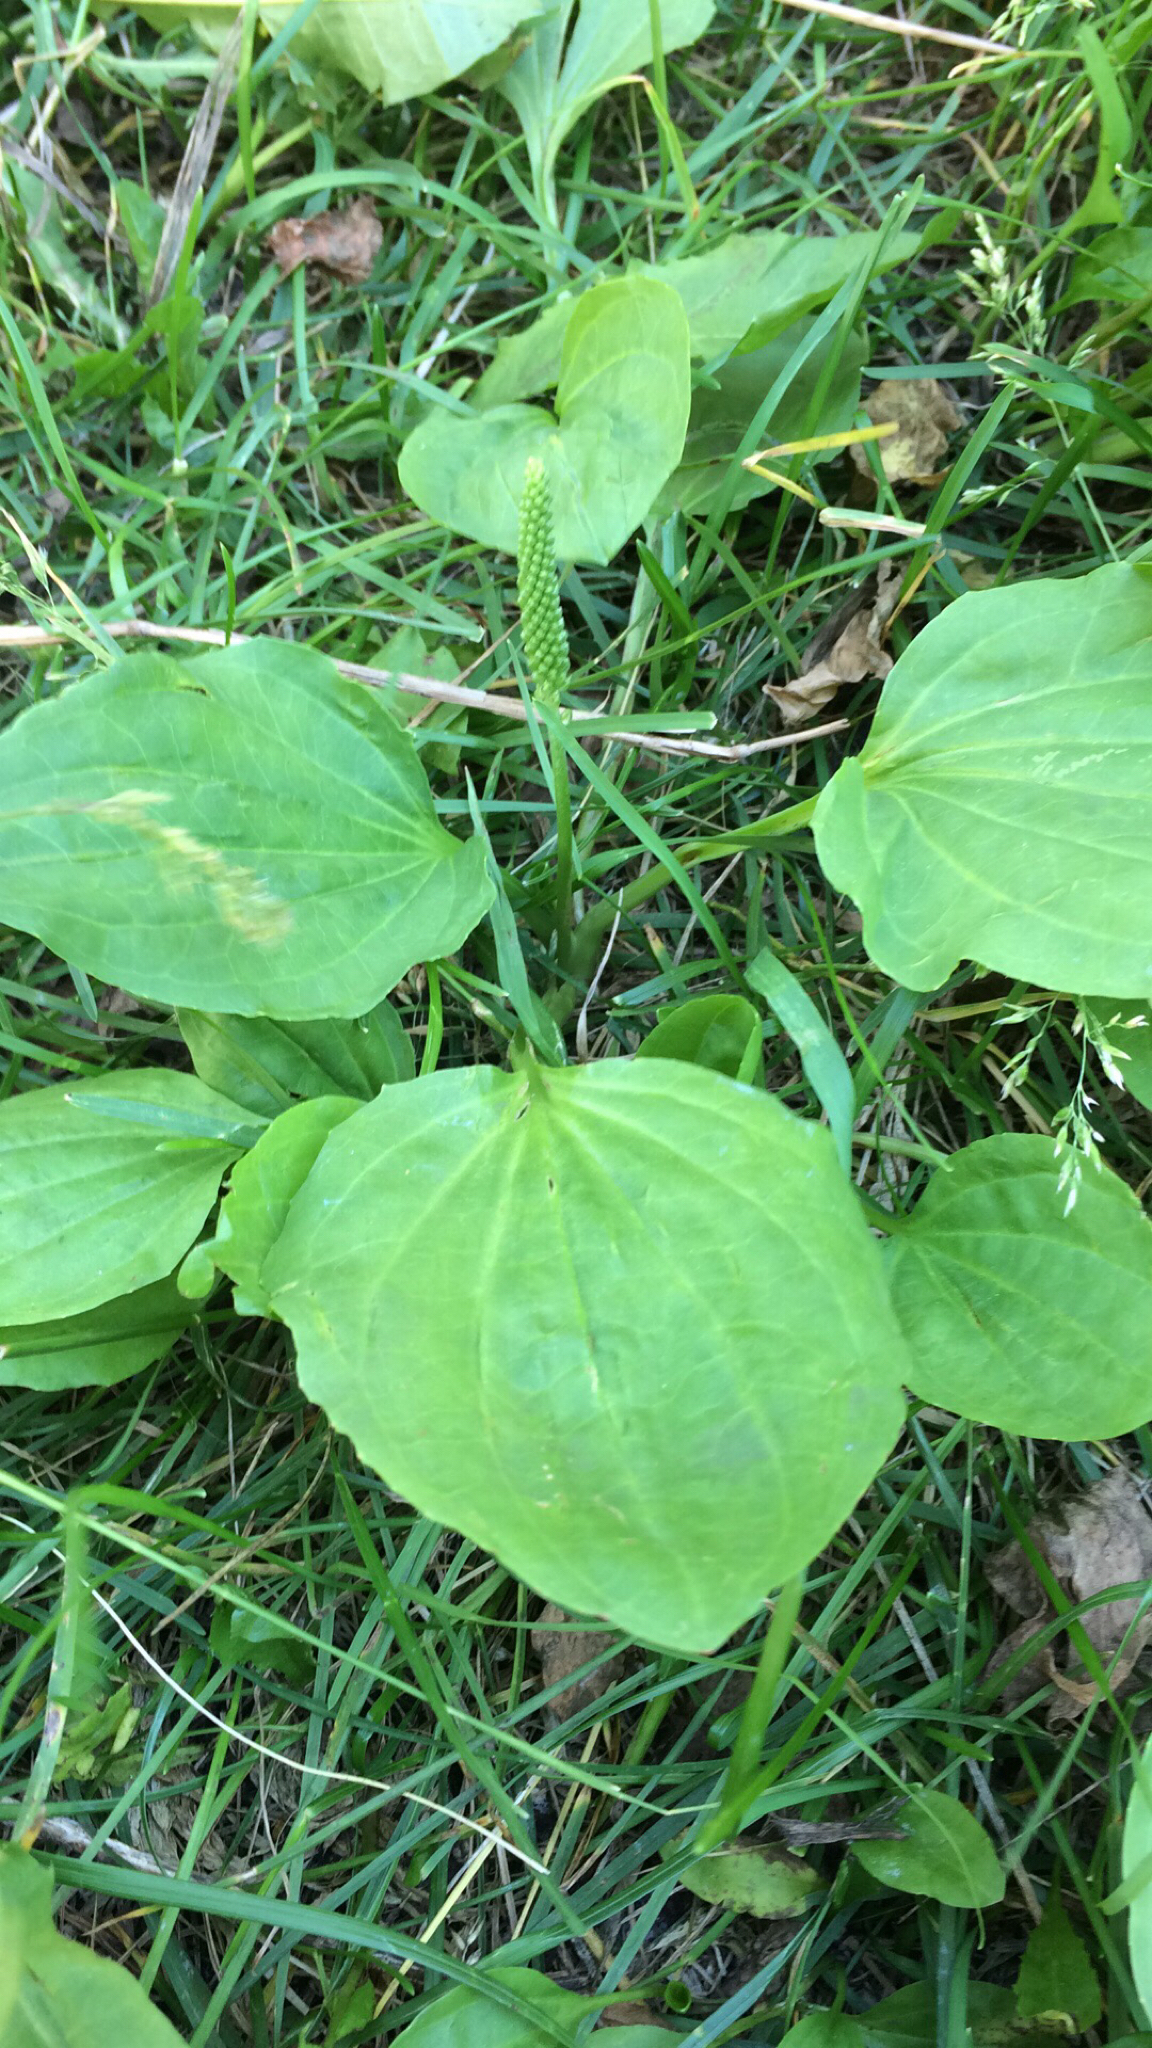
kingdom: Plantae
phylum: Tracheophyta
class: Magnoliopsida
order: Lamiales
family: Plantaginaceae
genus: Plantago
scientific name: Plantago major
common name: Common plantain
